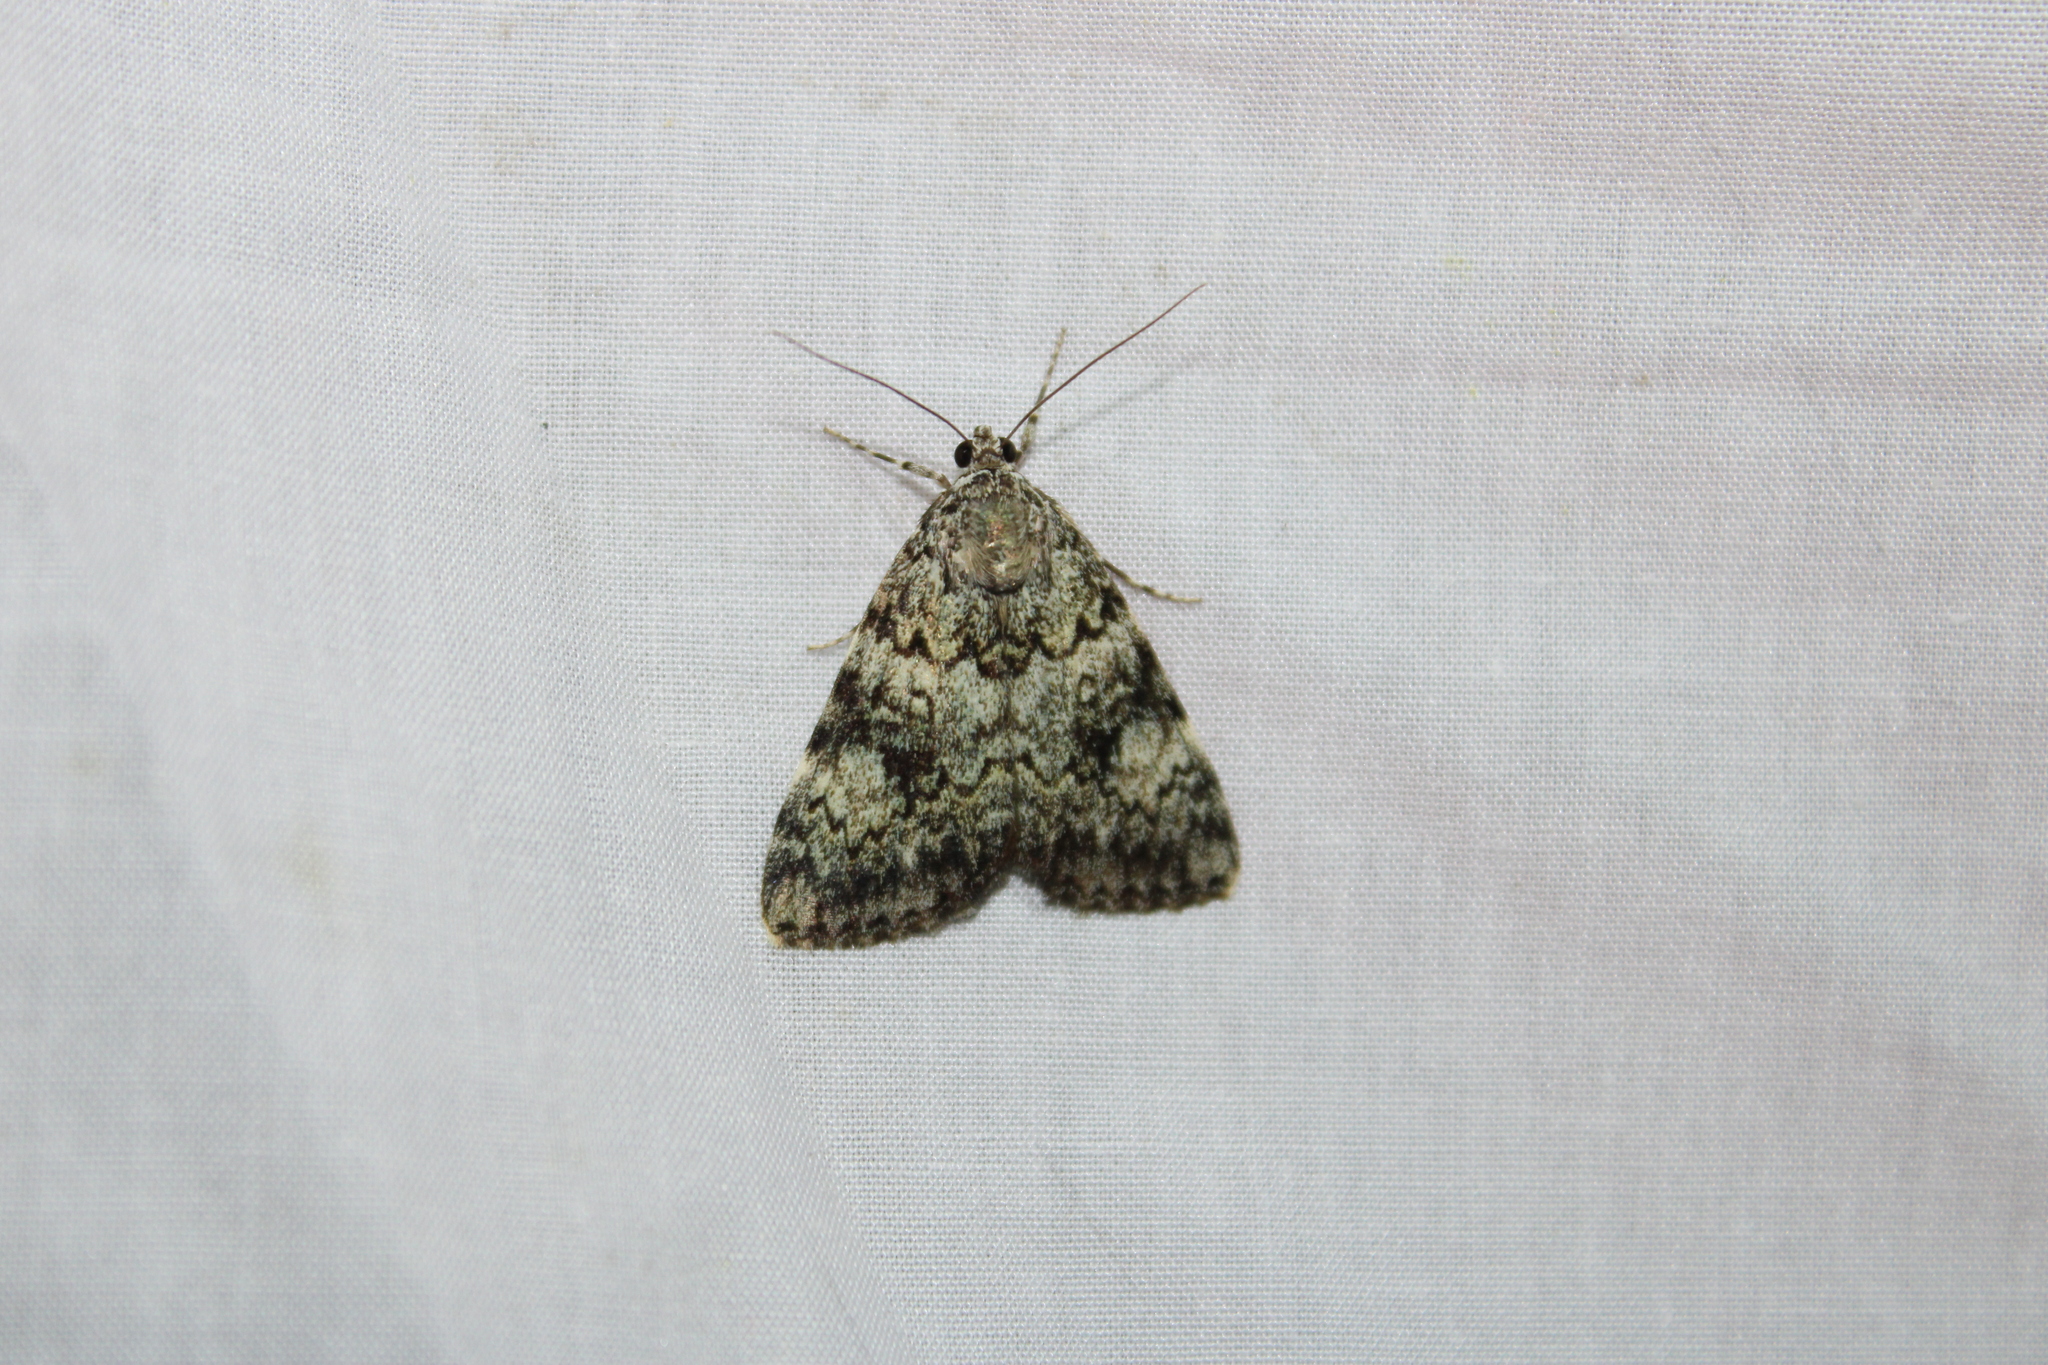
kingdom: Animalia
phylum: Arthropoda
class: Insecta
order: Lepidoptera
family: Erebidae
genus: Catocala
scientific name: Catocala lineella
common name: Little lined underwing
